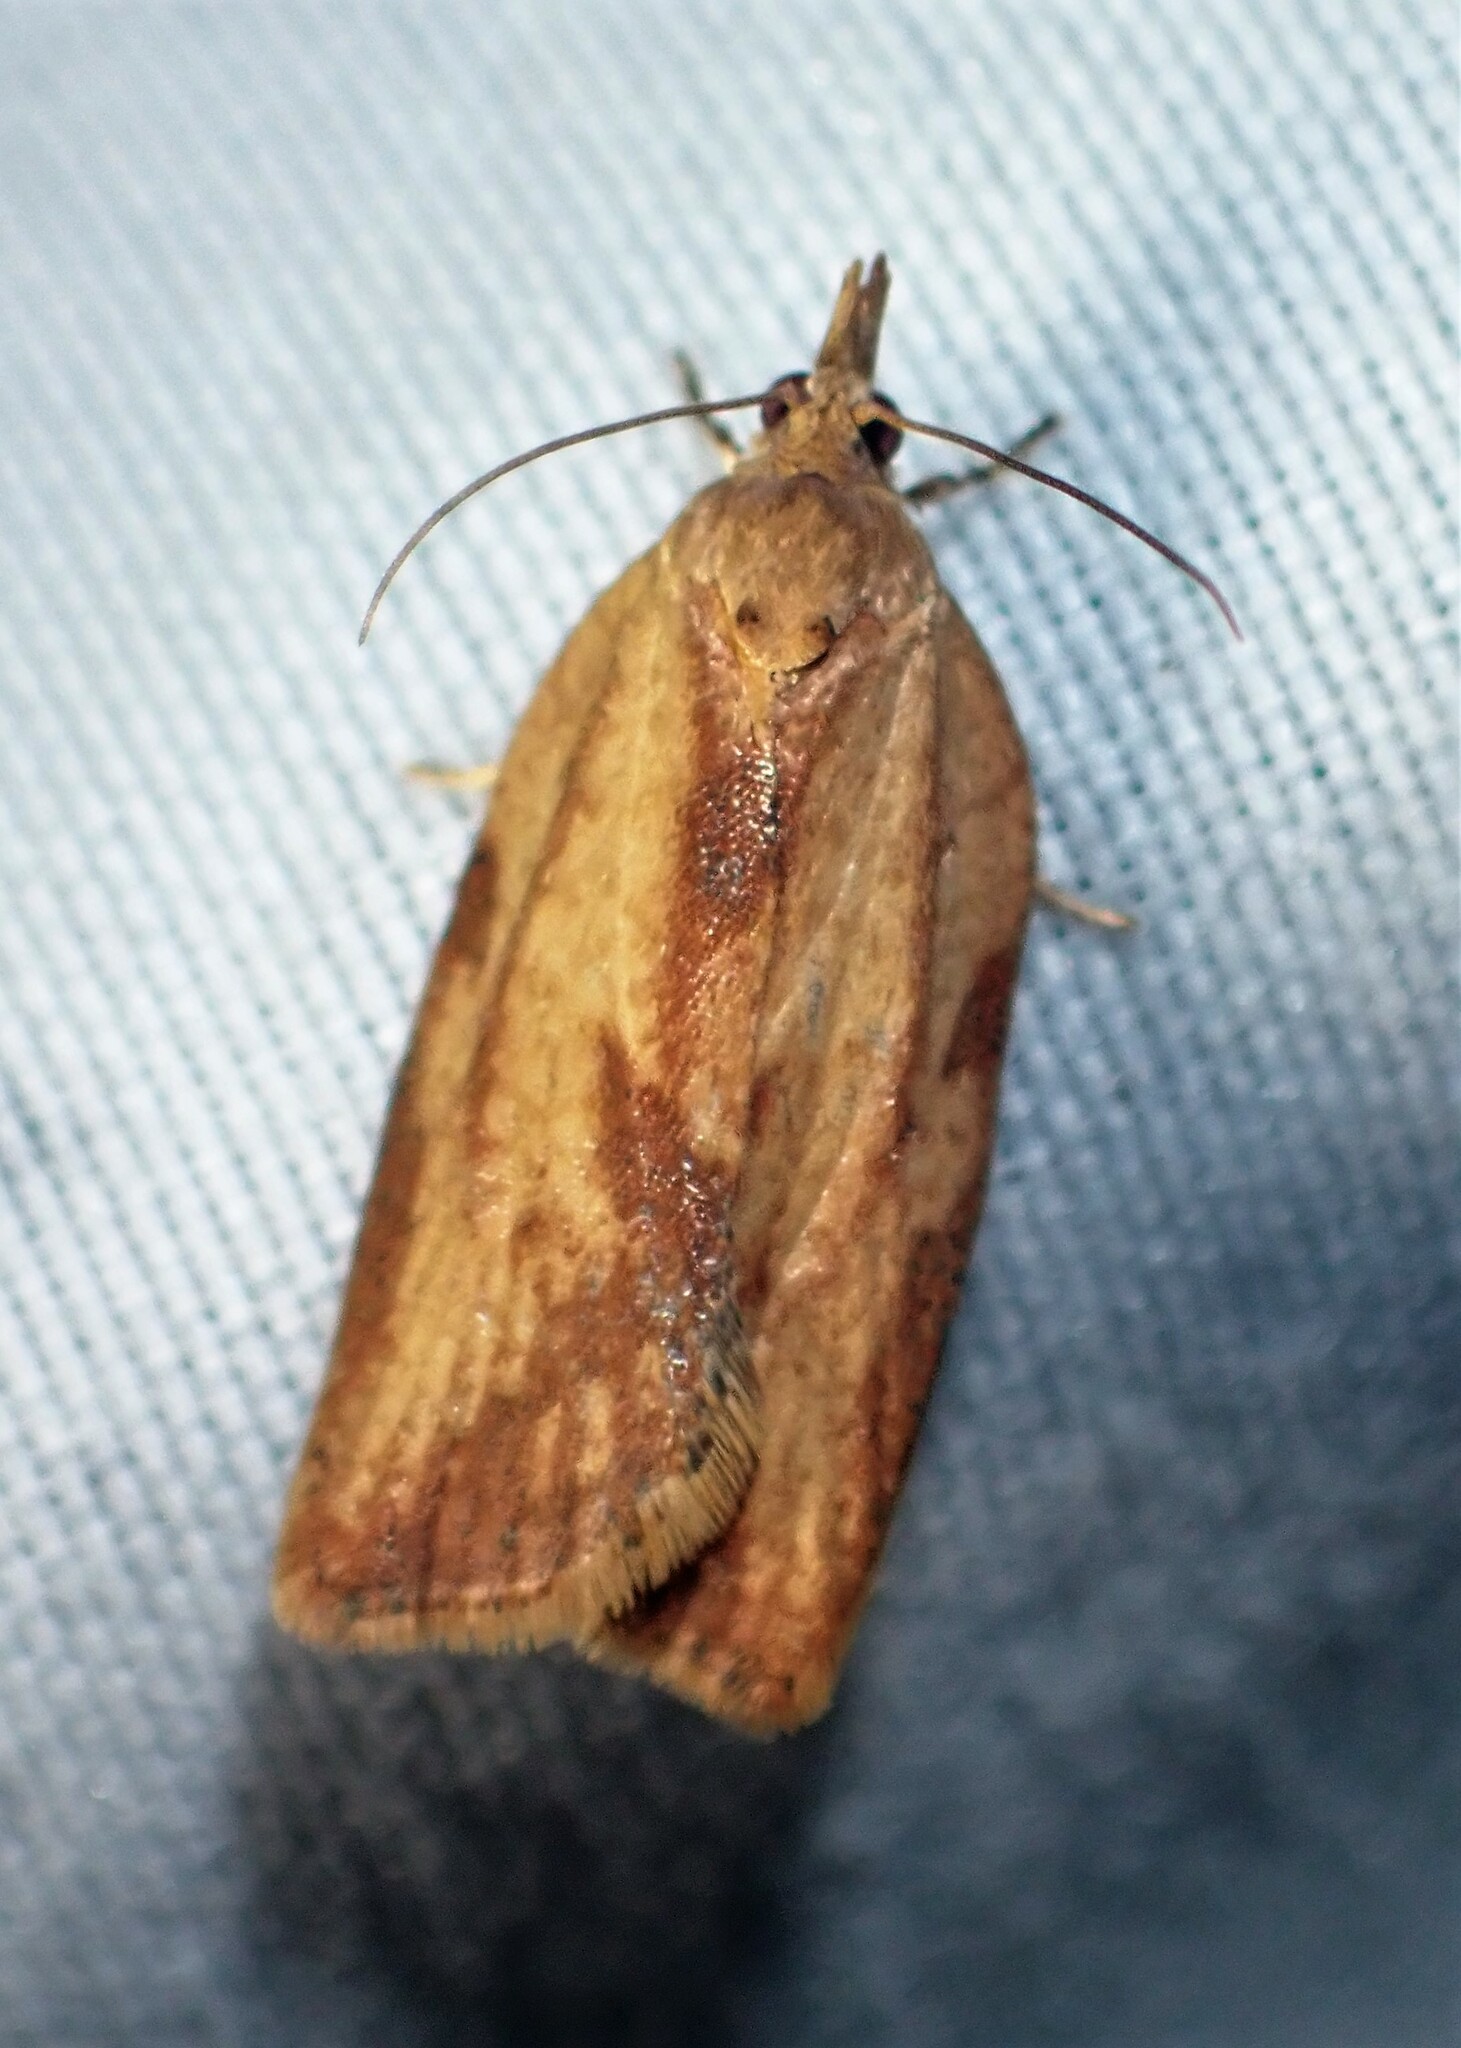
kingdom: Animalia
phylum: Arthropoda
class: Insecta
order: Lepidoptera
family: Tortricidae
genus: Epiphyas
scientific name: Epiphyas postvittana
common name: Light brown apple moth
